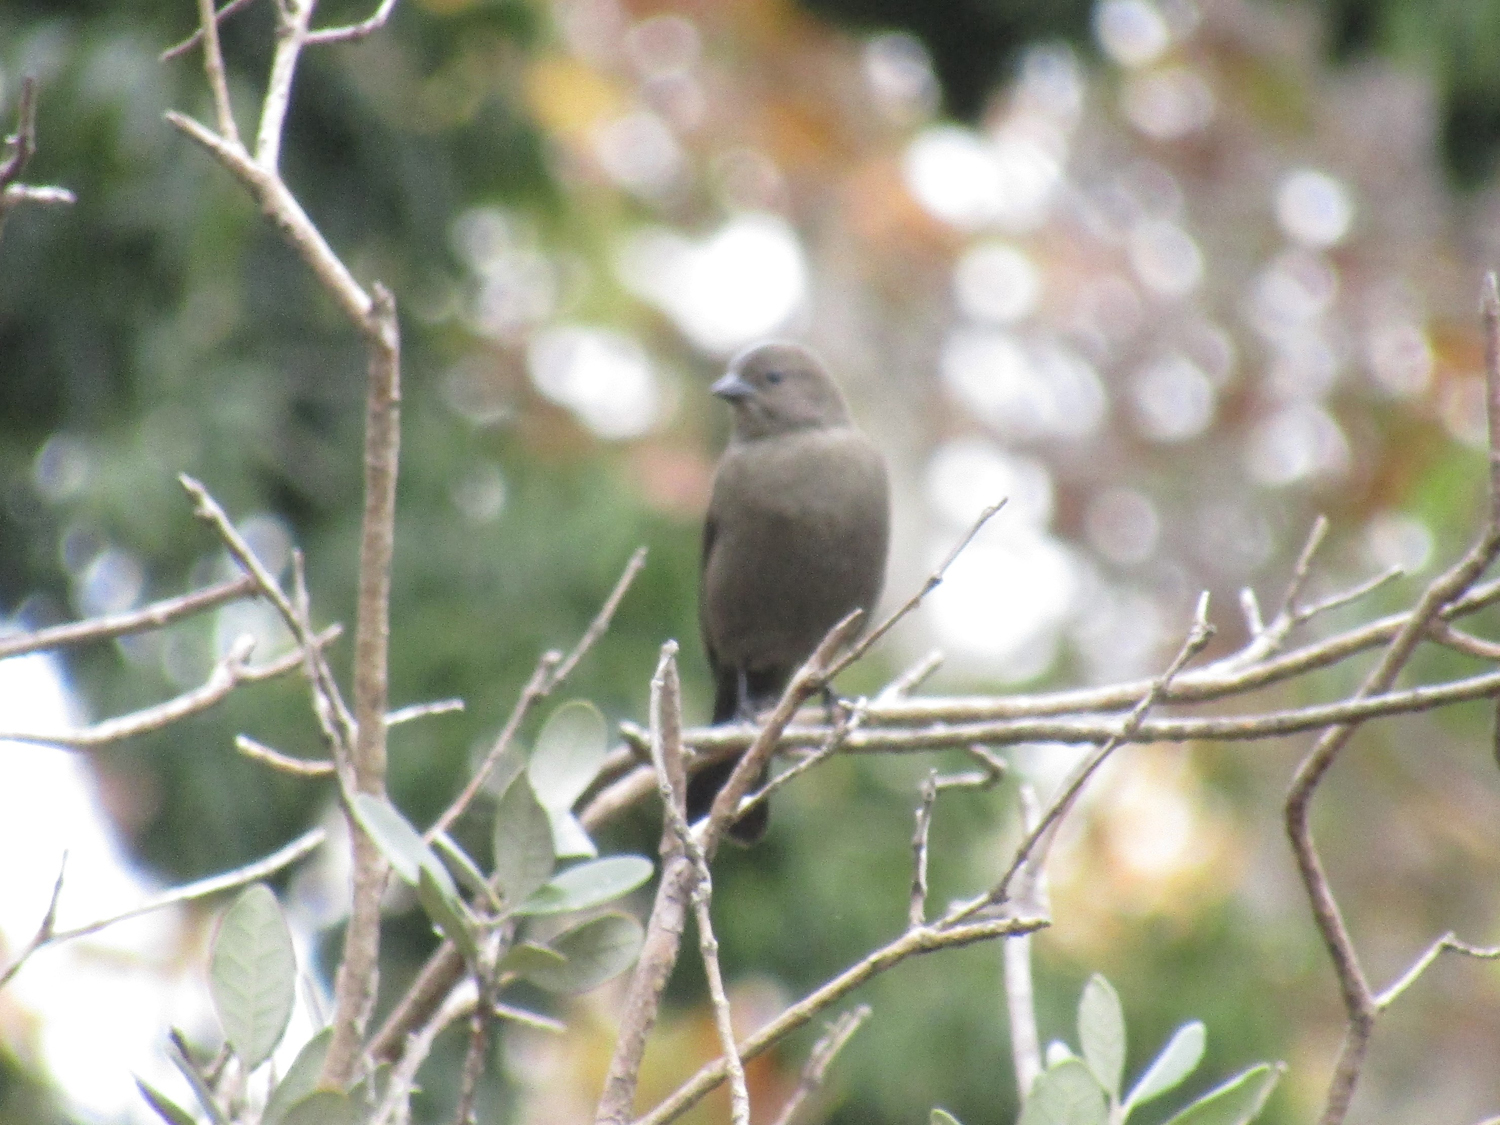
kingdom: Animalia
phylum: Chordata
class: Aves
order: Passeriformes
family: Icteridae
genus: Molothrus
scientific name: Molothrus bonariensis
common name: Shiny cowbird
